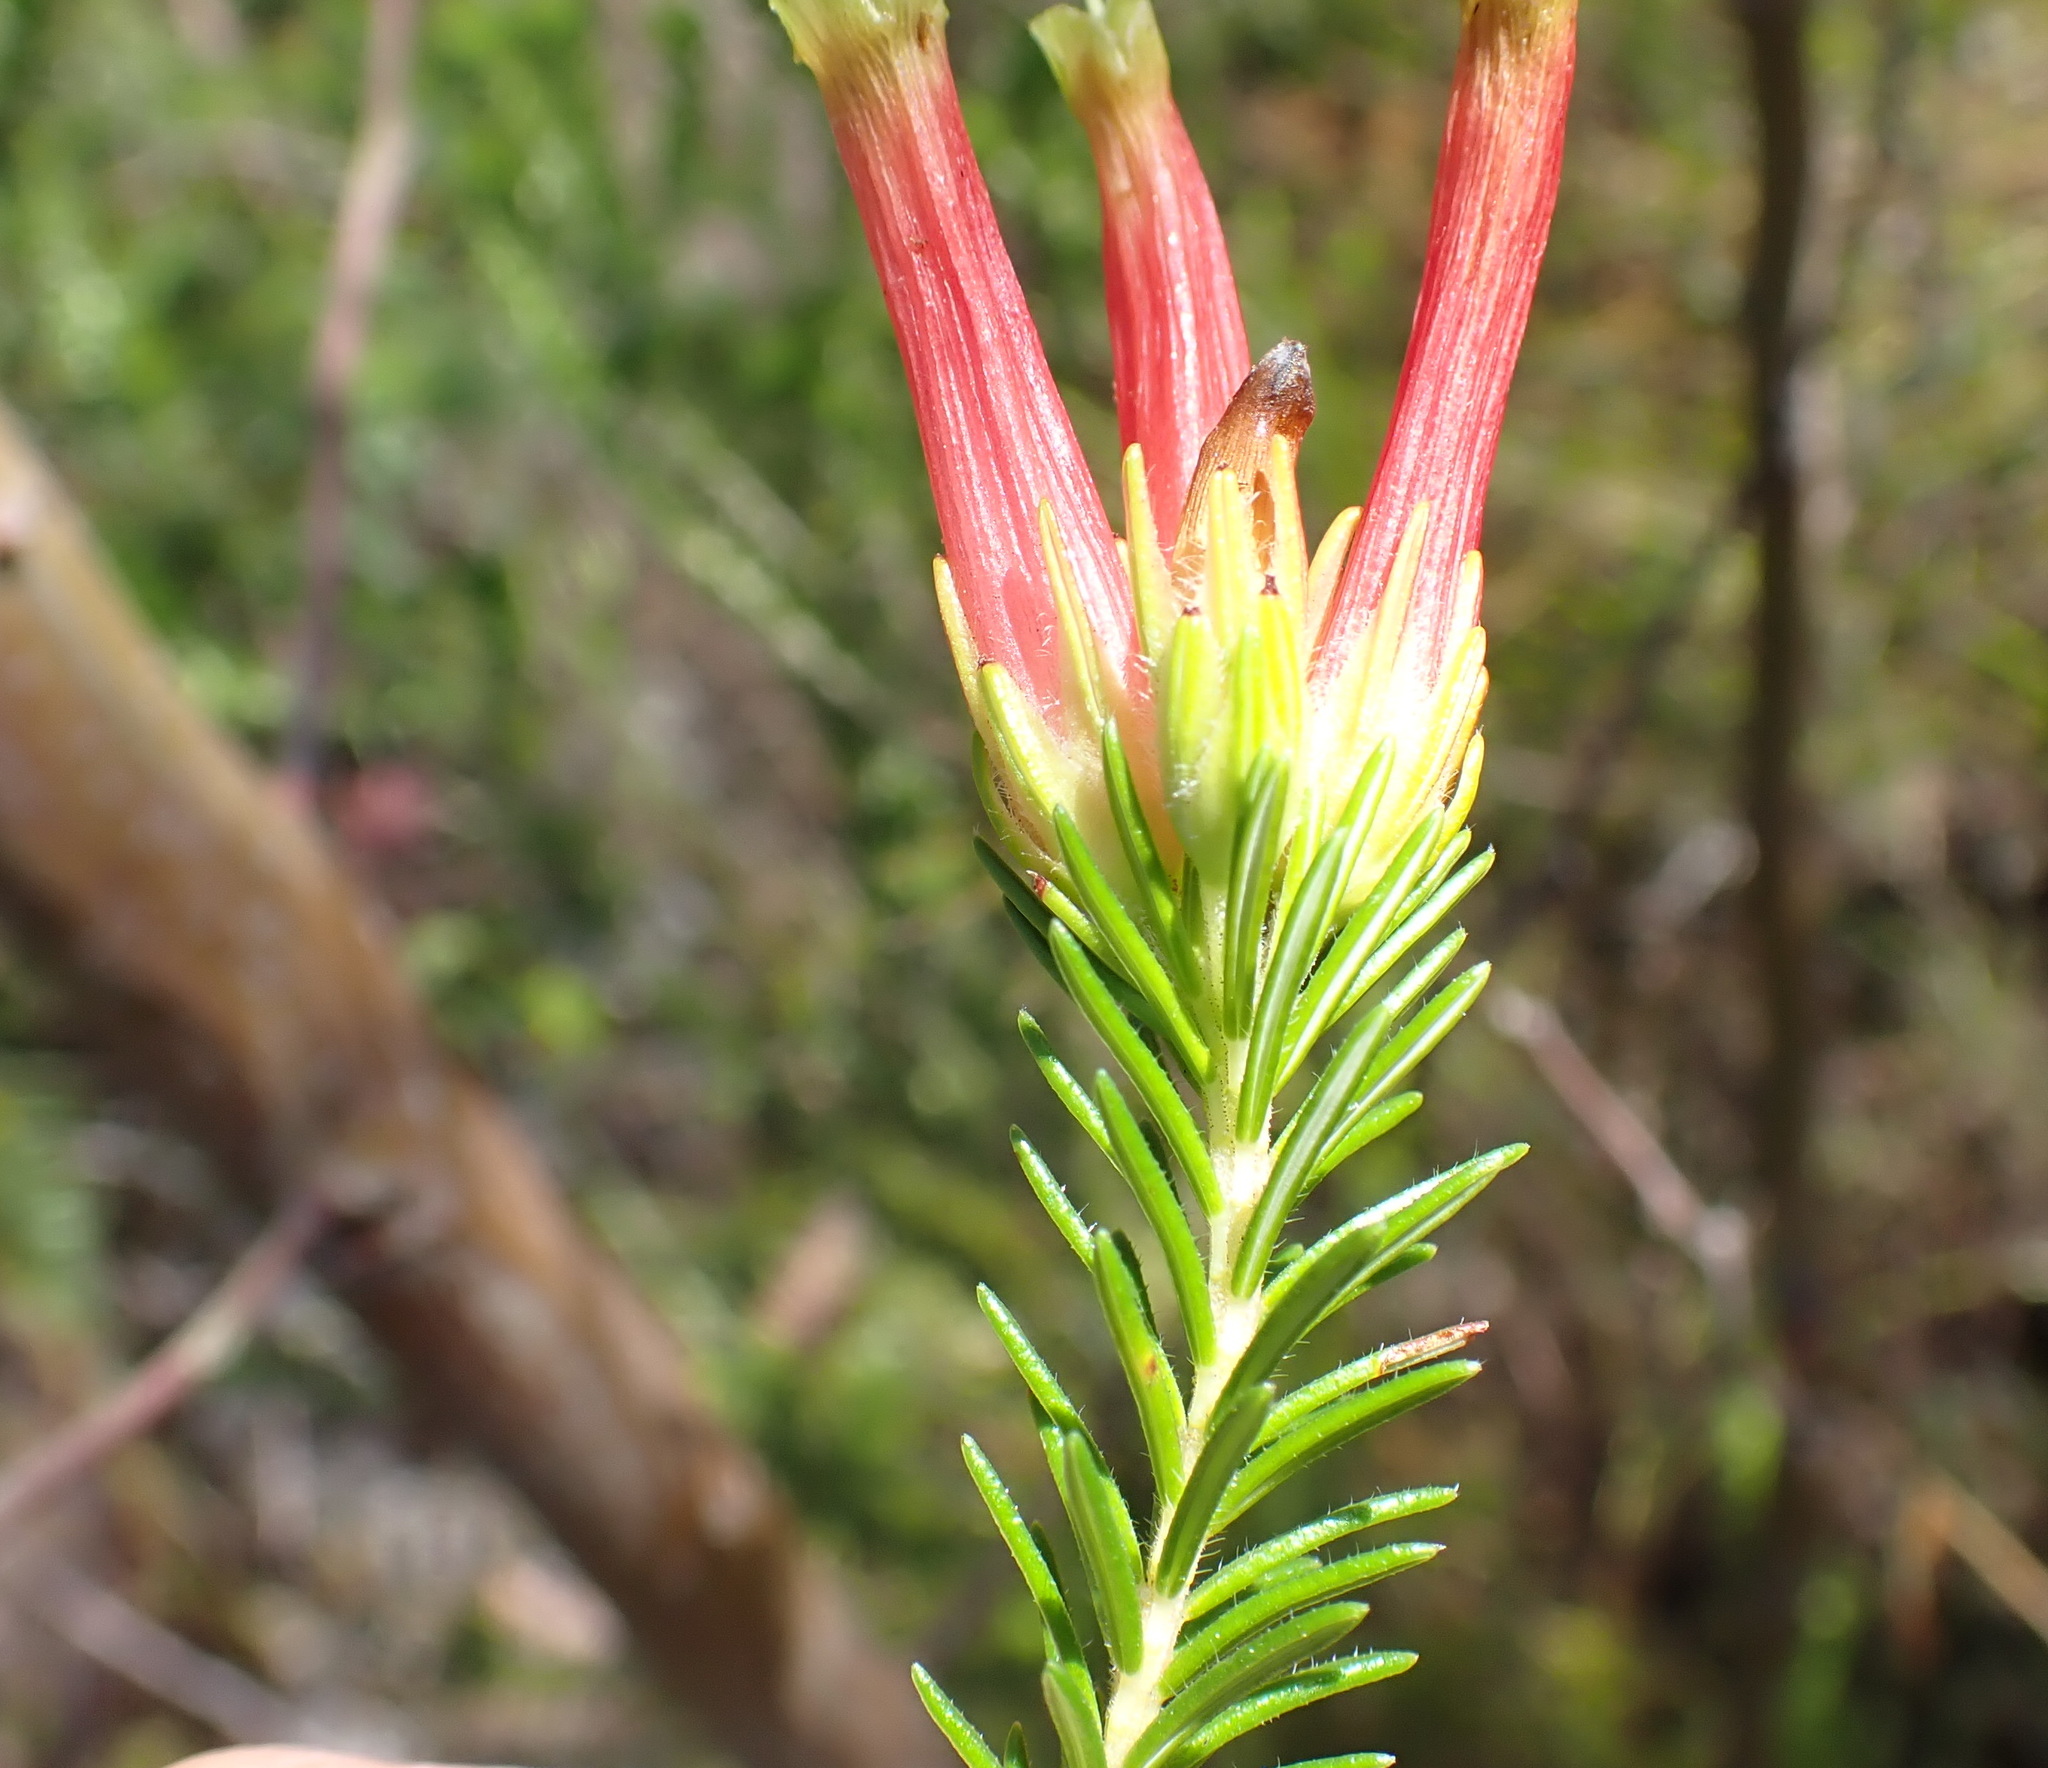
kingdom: Plantae
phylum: Tracheophyta
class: Magnoliopsida
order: Ericales
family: Ericaceae
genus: Erica
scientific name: Erica unicolor
